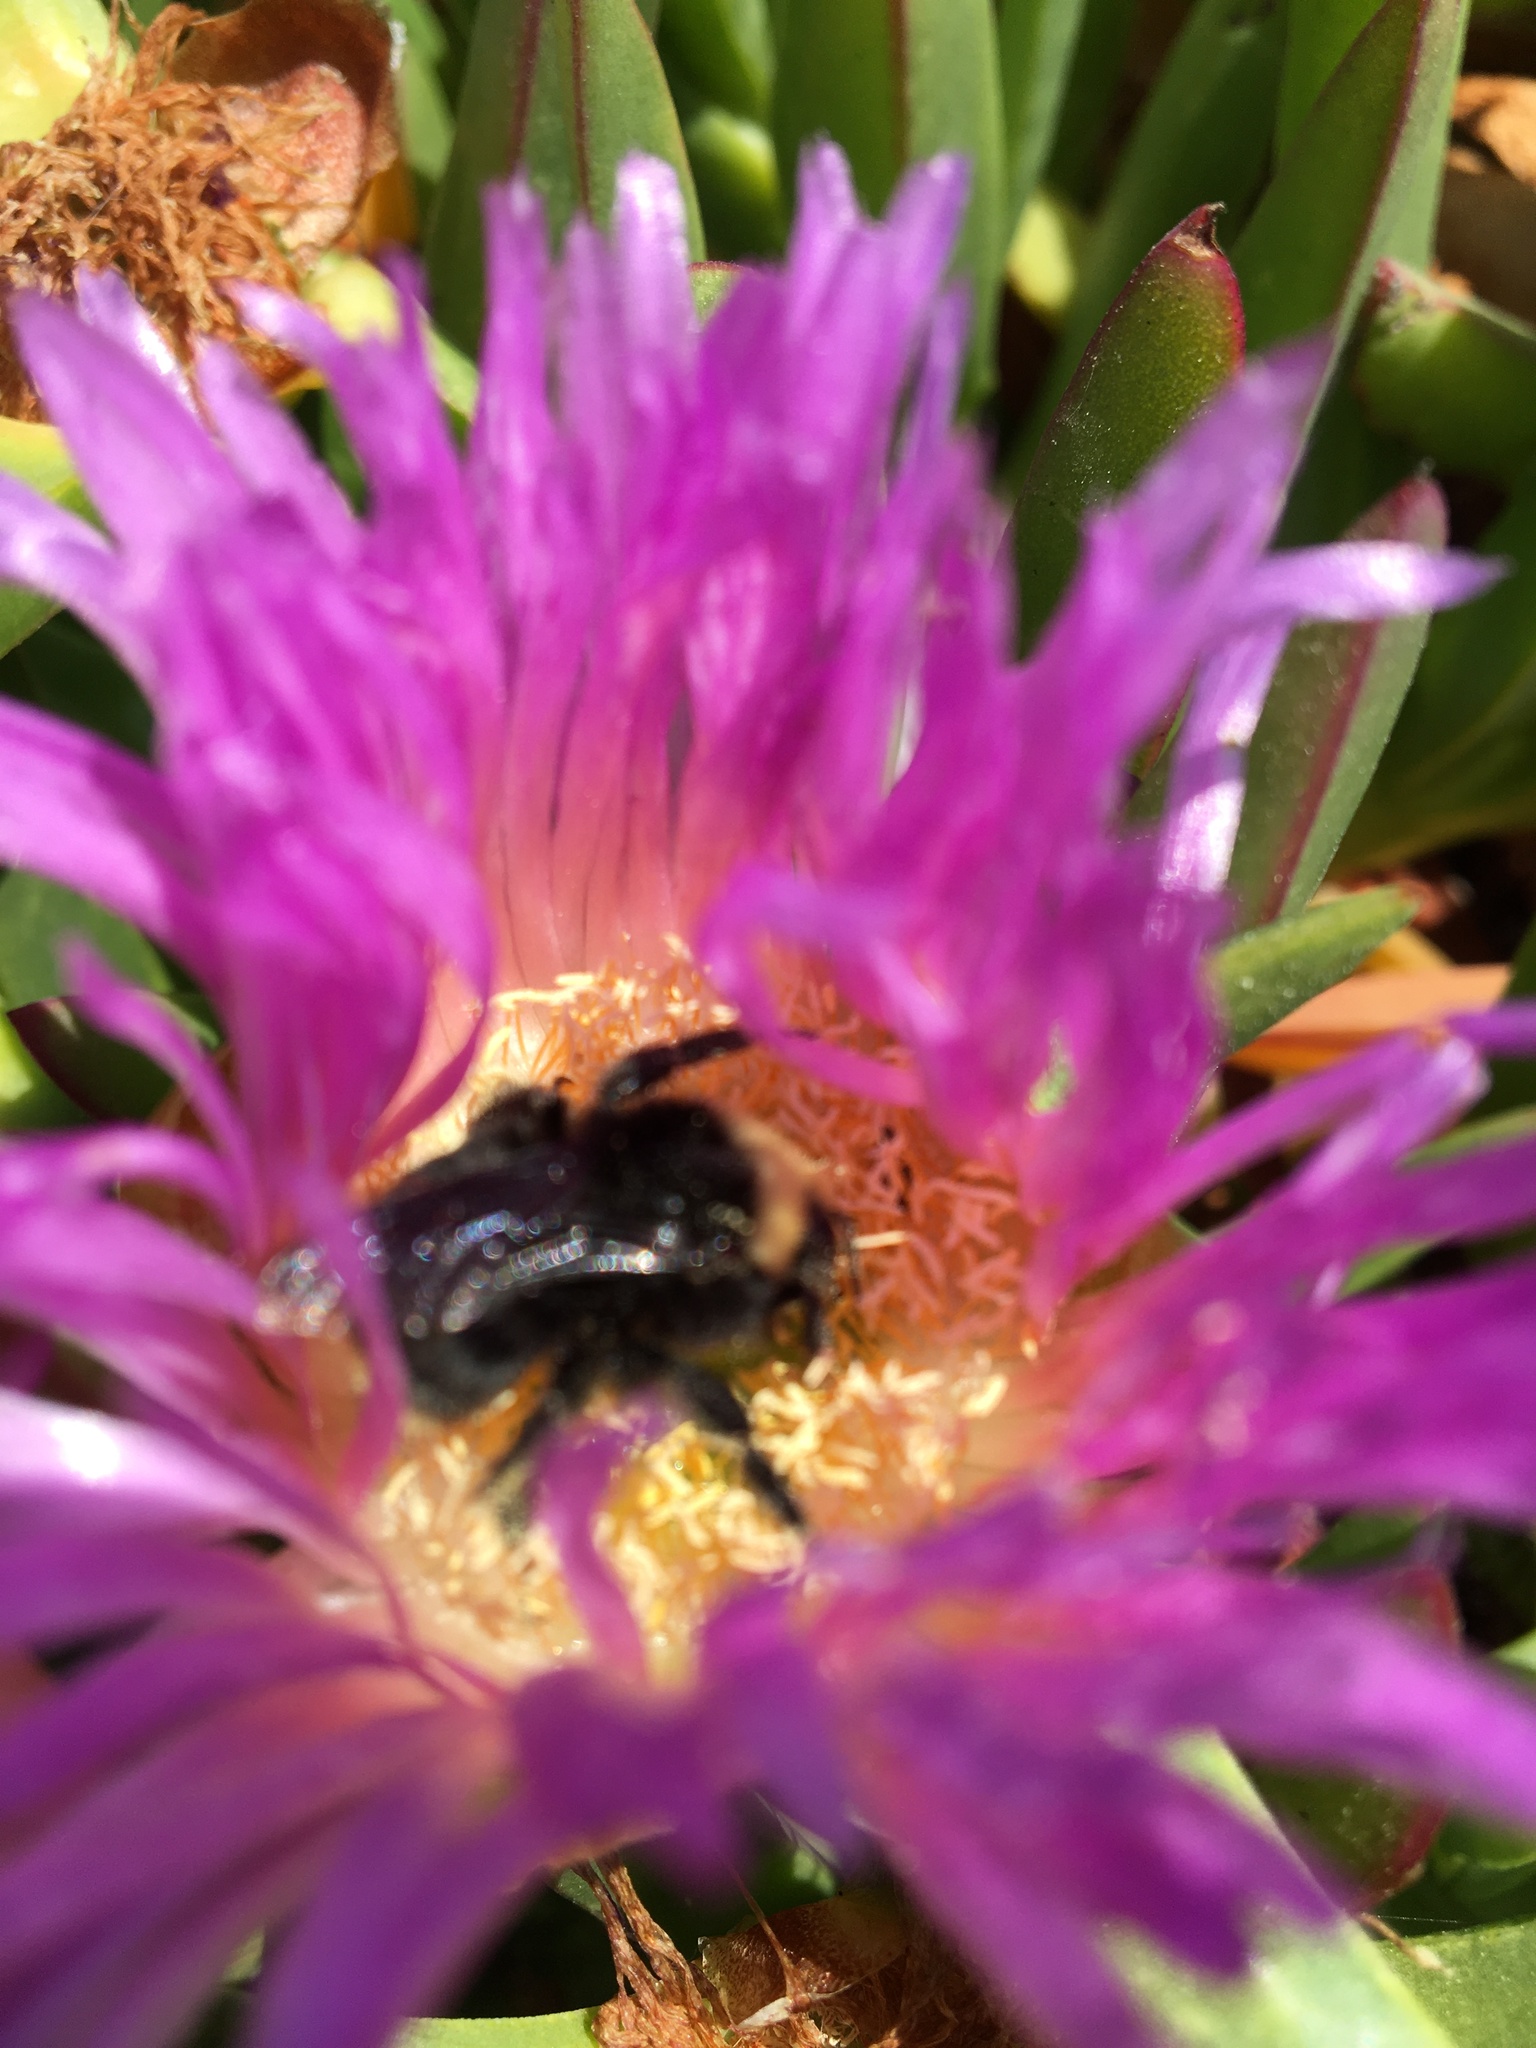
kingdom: Animalia
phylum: Arthropoda
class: Insecta
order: Hymenoptera
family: Apidae
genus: Bombus
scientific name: Bombus californicus
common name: California bumble bee
